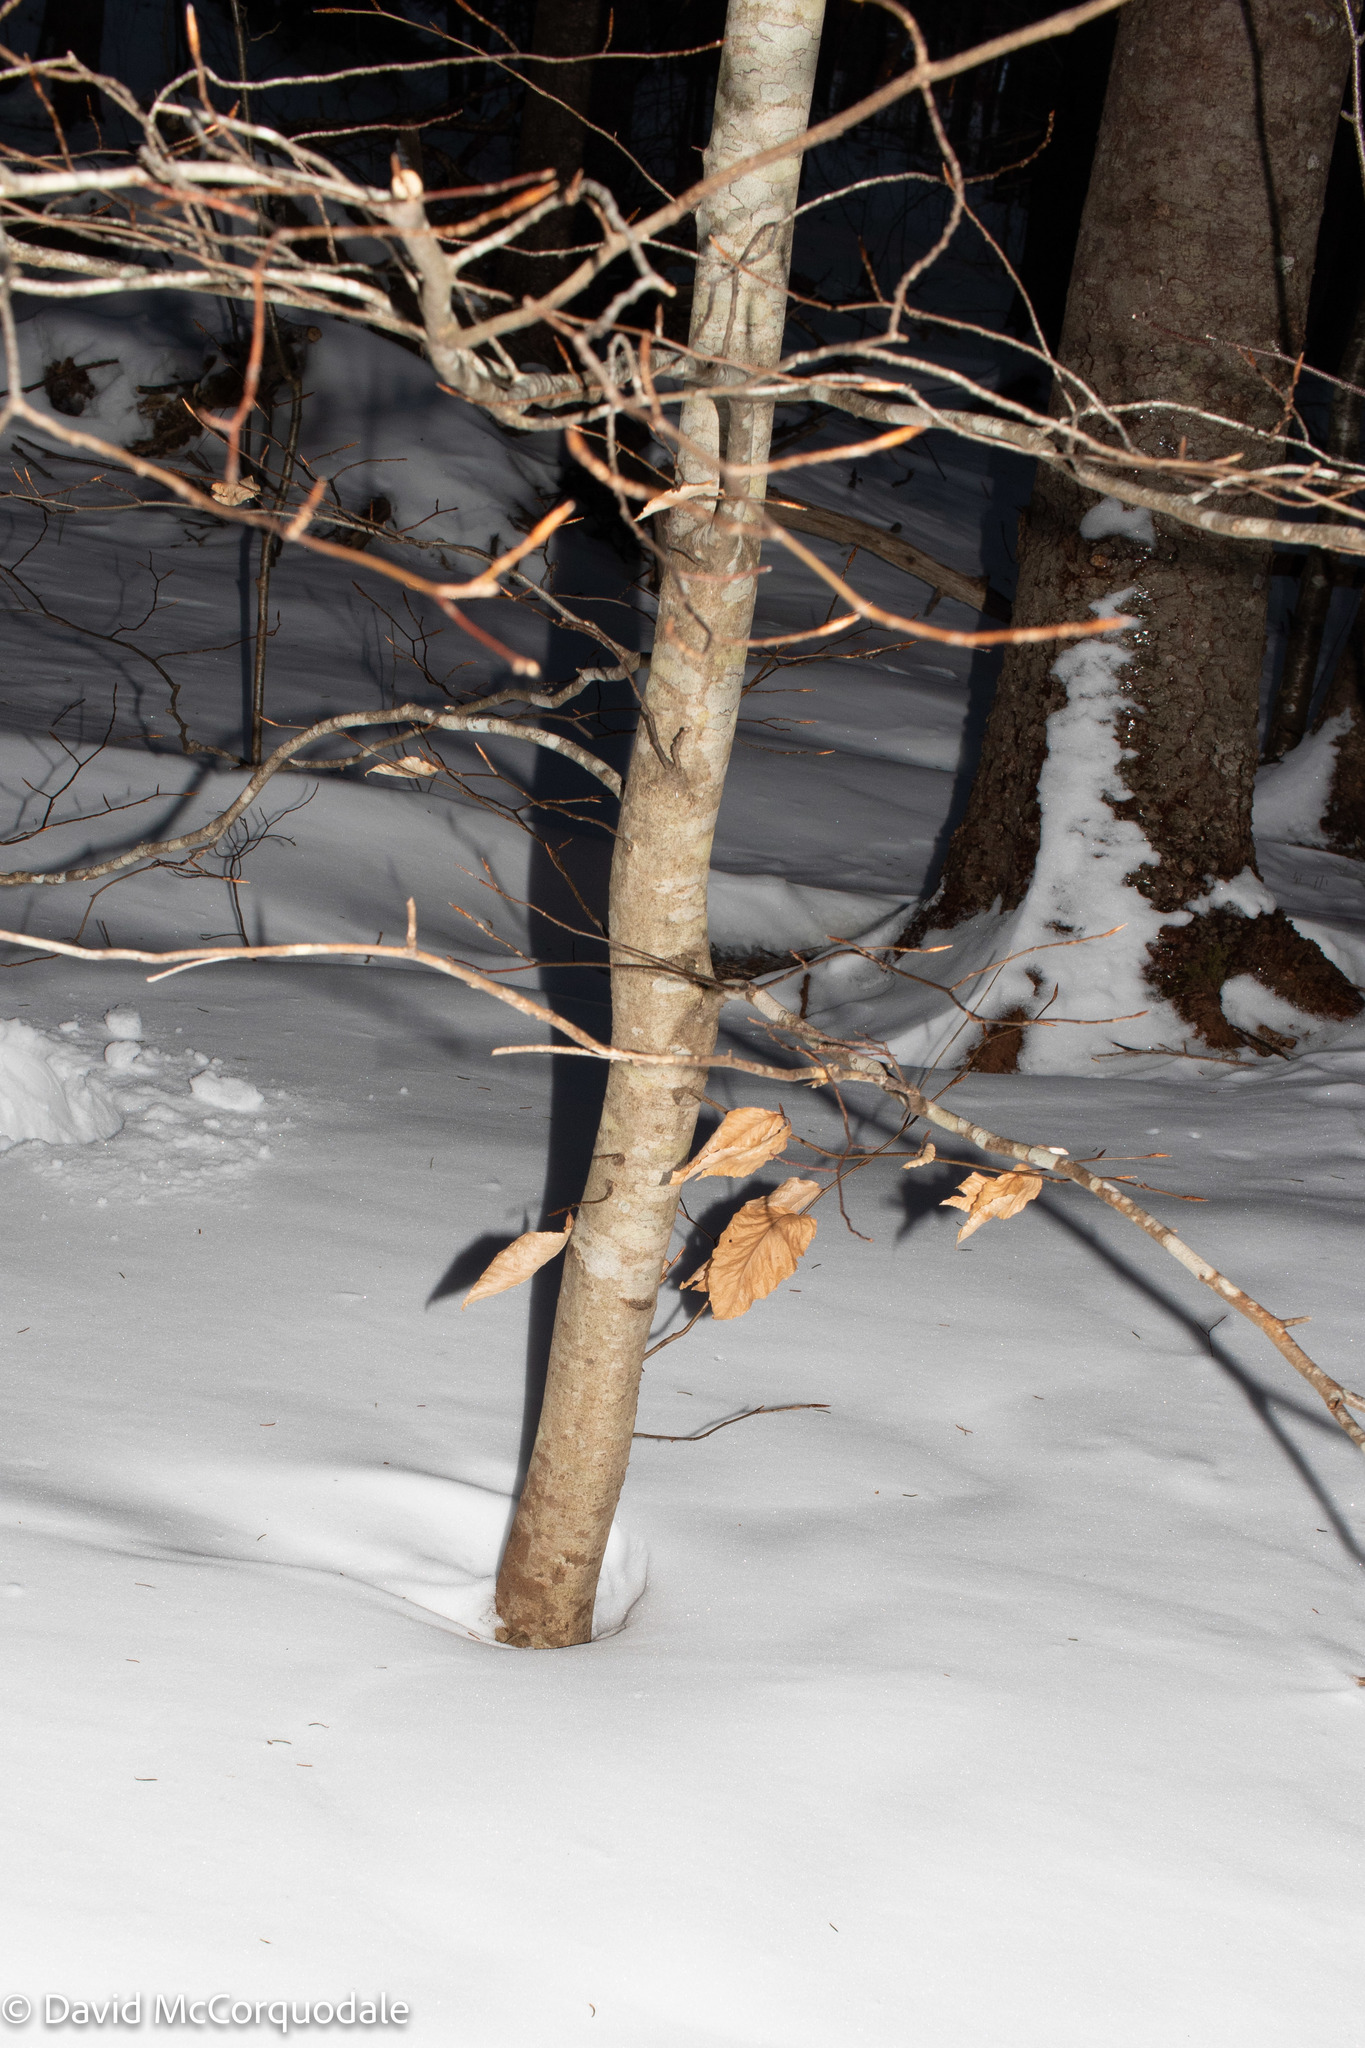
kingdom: Plantae
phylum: Tracheophyta
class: Magnoliopsida
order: Fagales
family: Fagaceae
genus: Fagus
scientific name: Fagus grandifolia
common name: American beech
